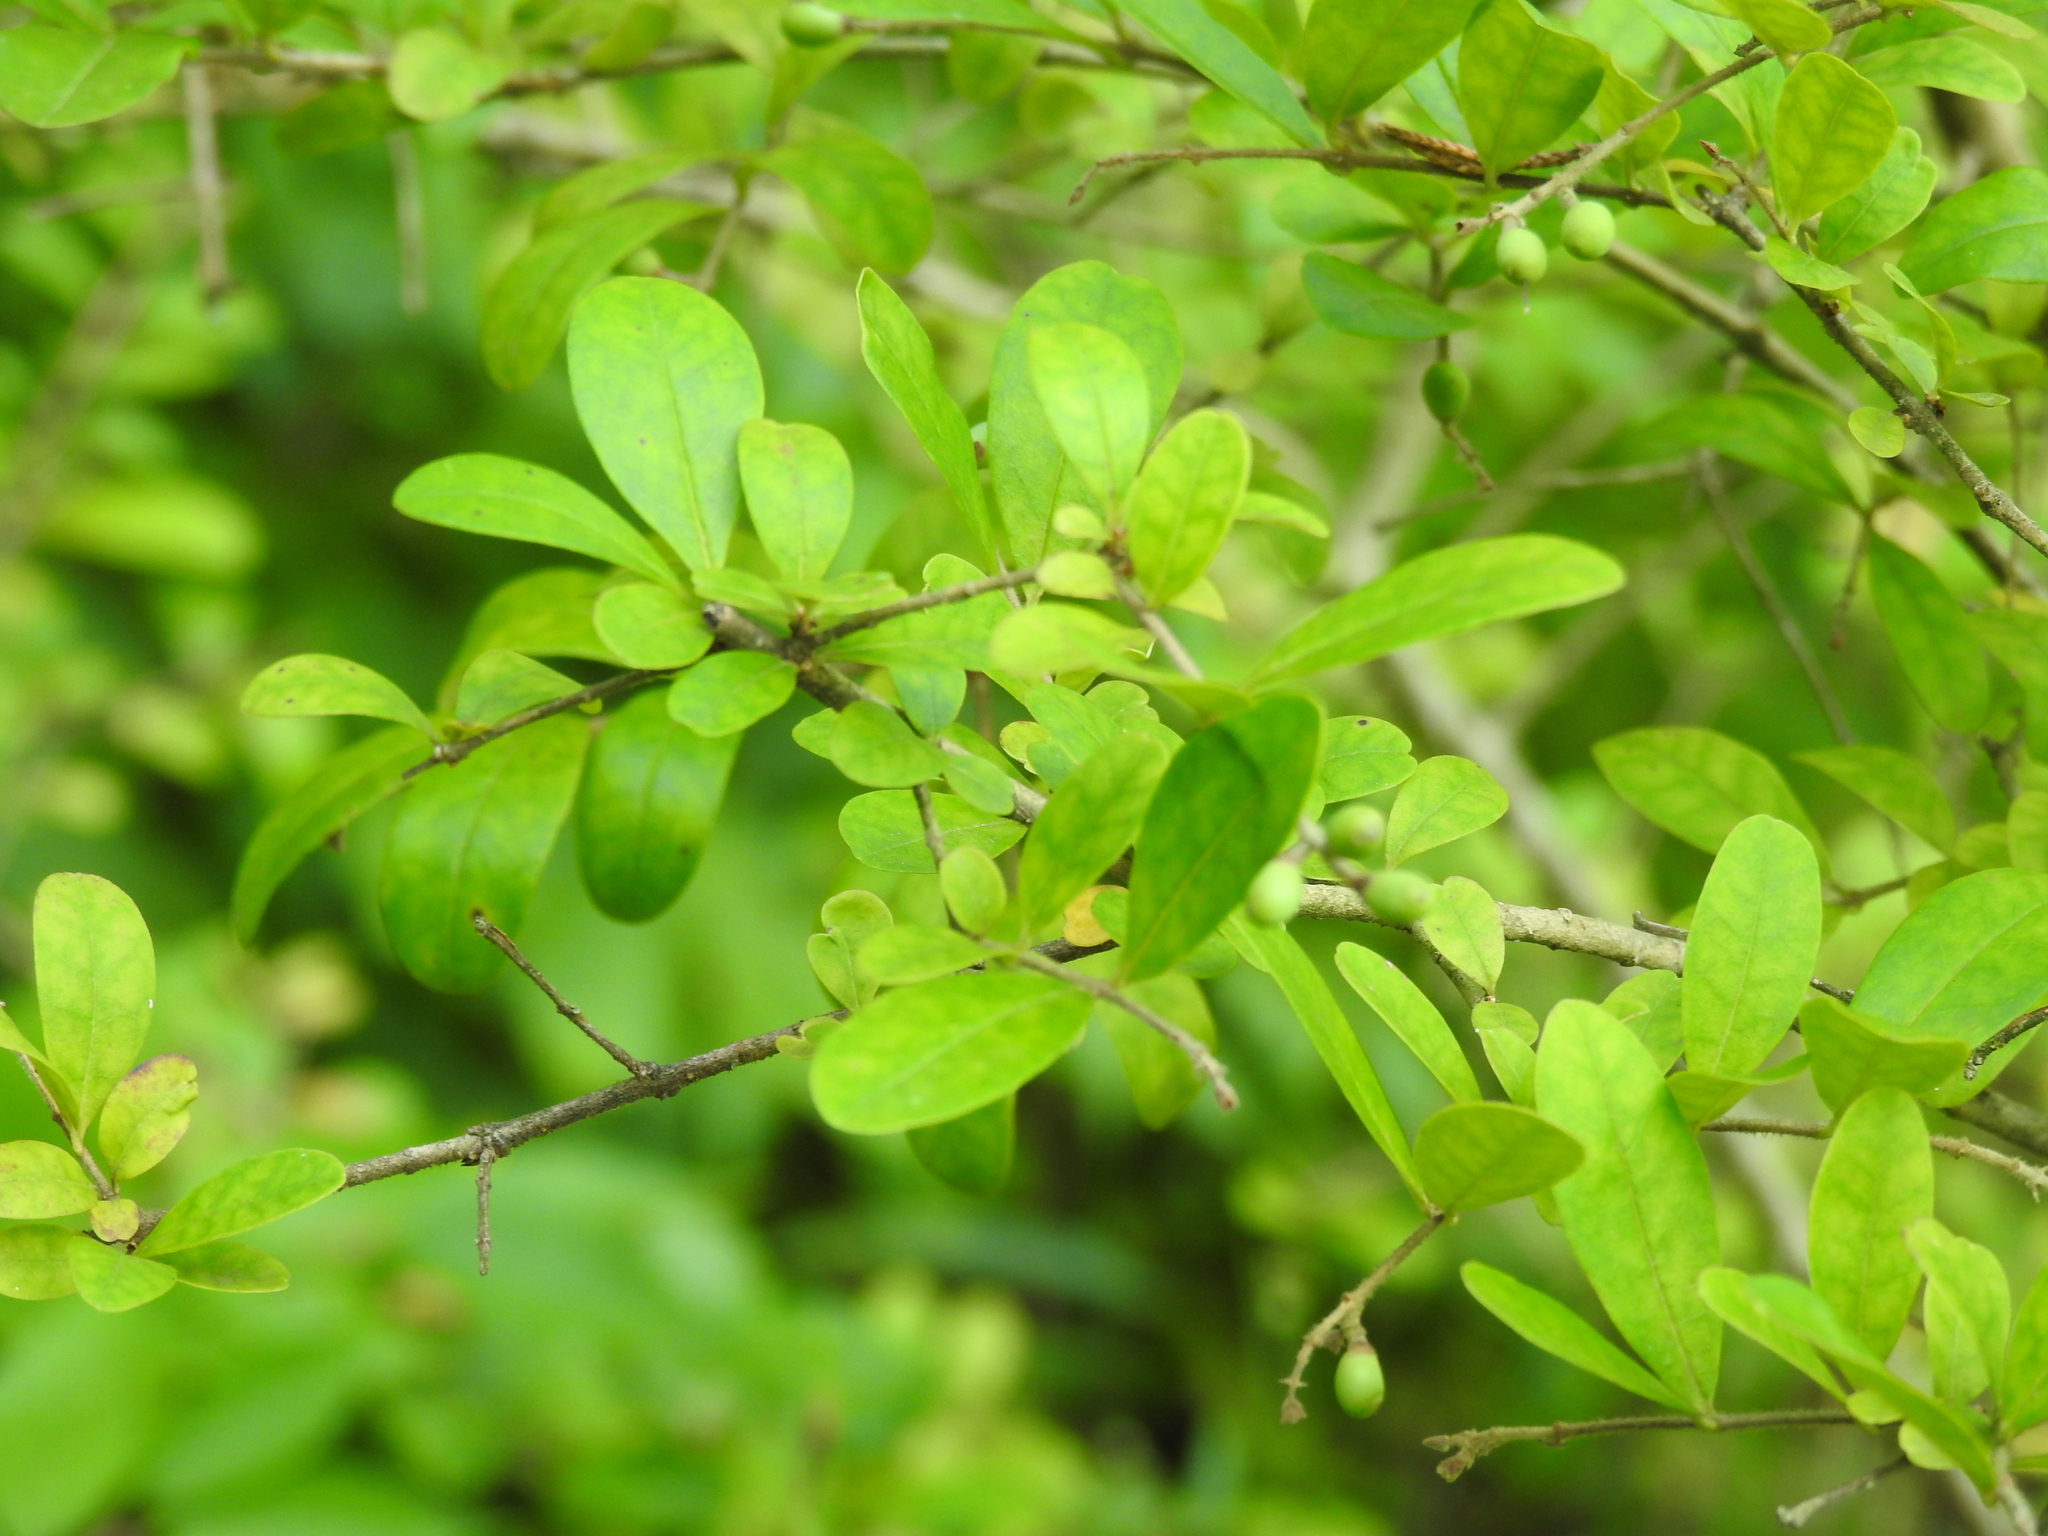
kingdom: Plantae
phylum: Tracheophyta
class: Magnoliopsida
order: Lamiales
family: Oleaceae
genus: Ligustrum
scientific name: Ligustrum obtusifolium
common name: Border privet
